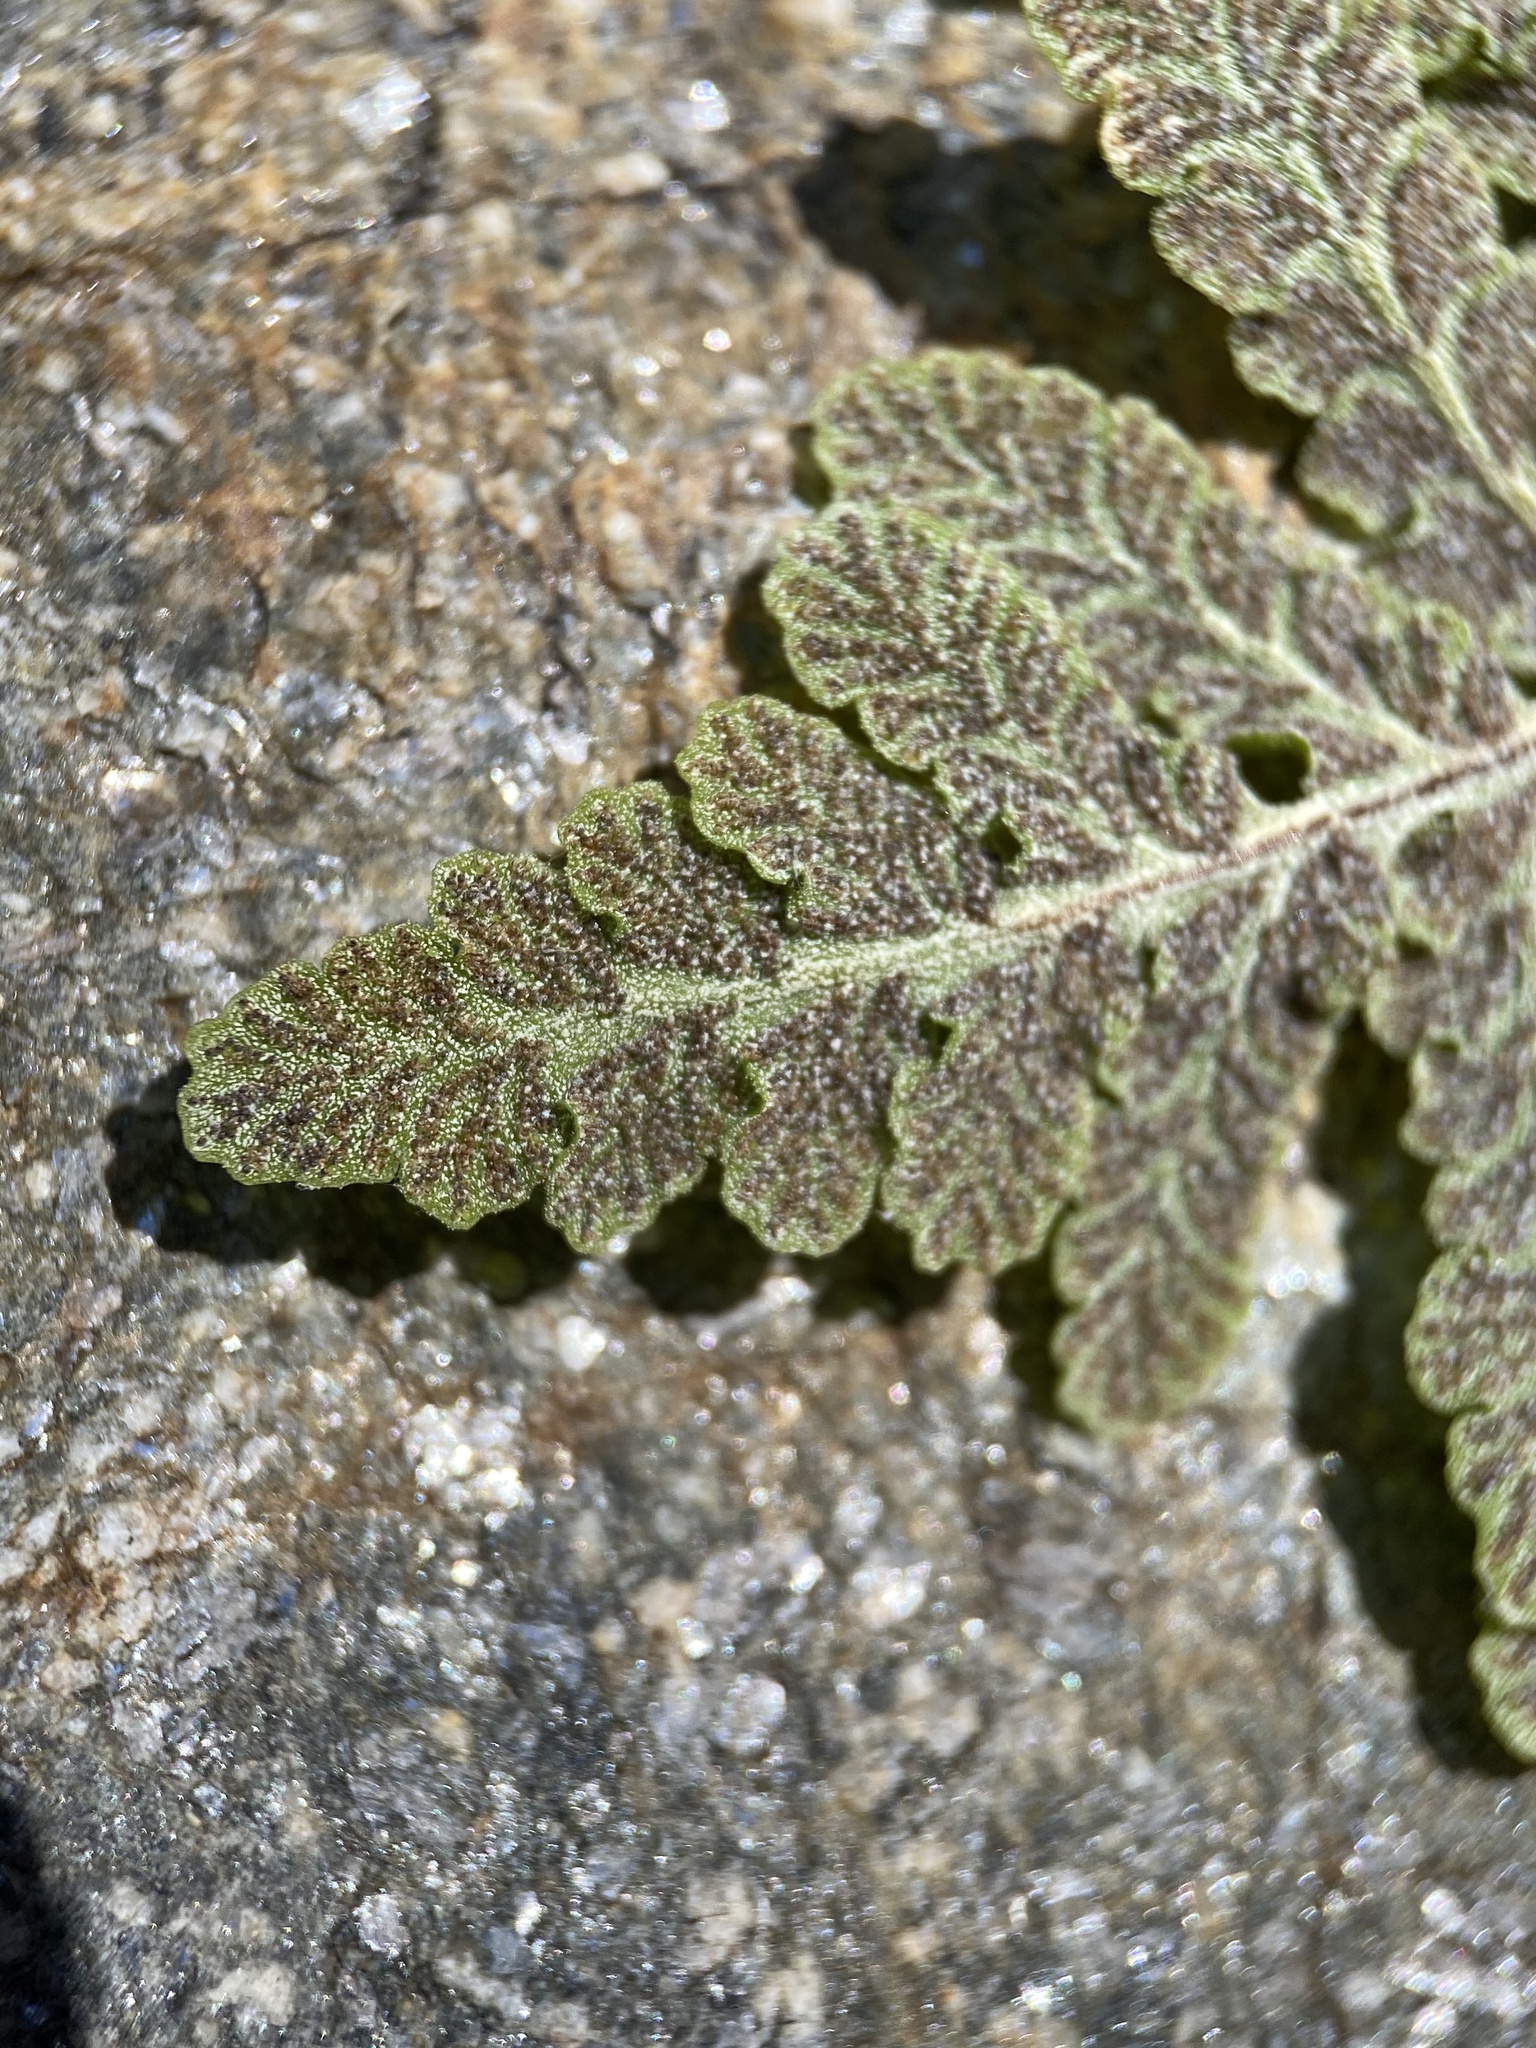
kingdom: Plantae
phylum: Tracheophyta
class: Polypodiopsida
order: Polypodiales
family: Pteridaceae
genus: Pentagramma
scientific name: Pentagramma maxonii
